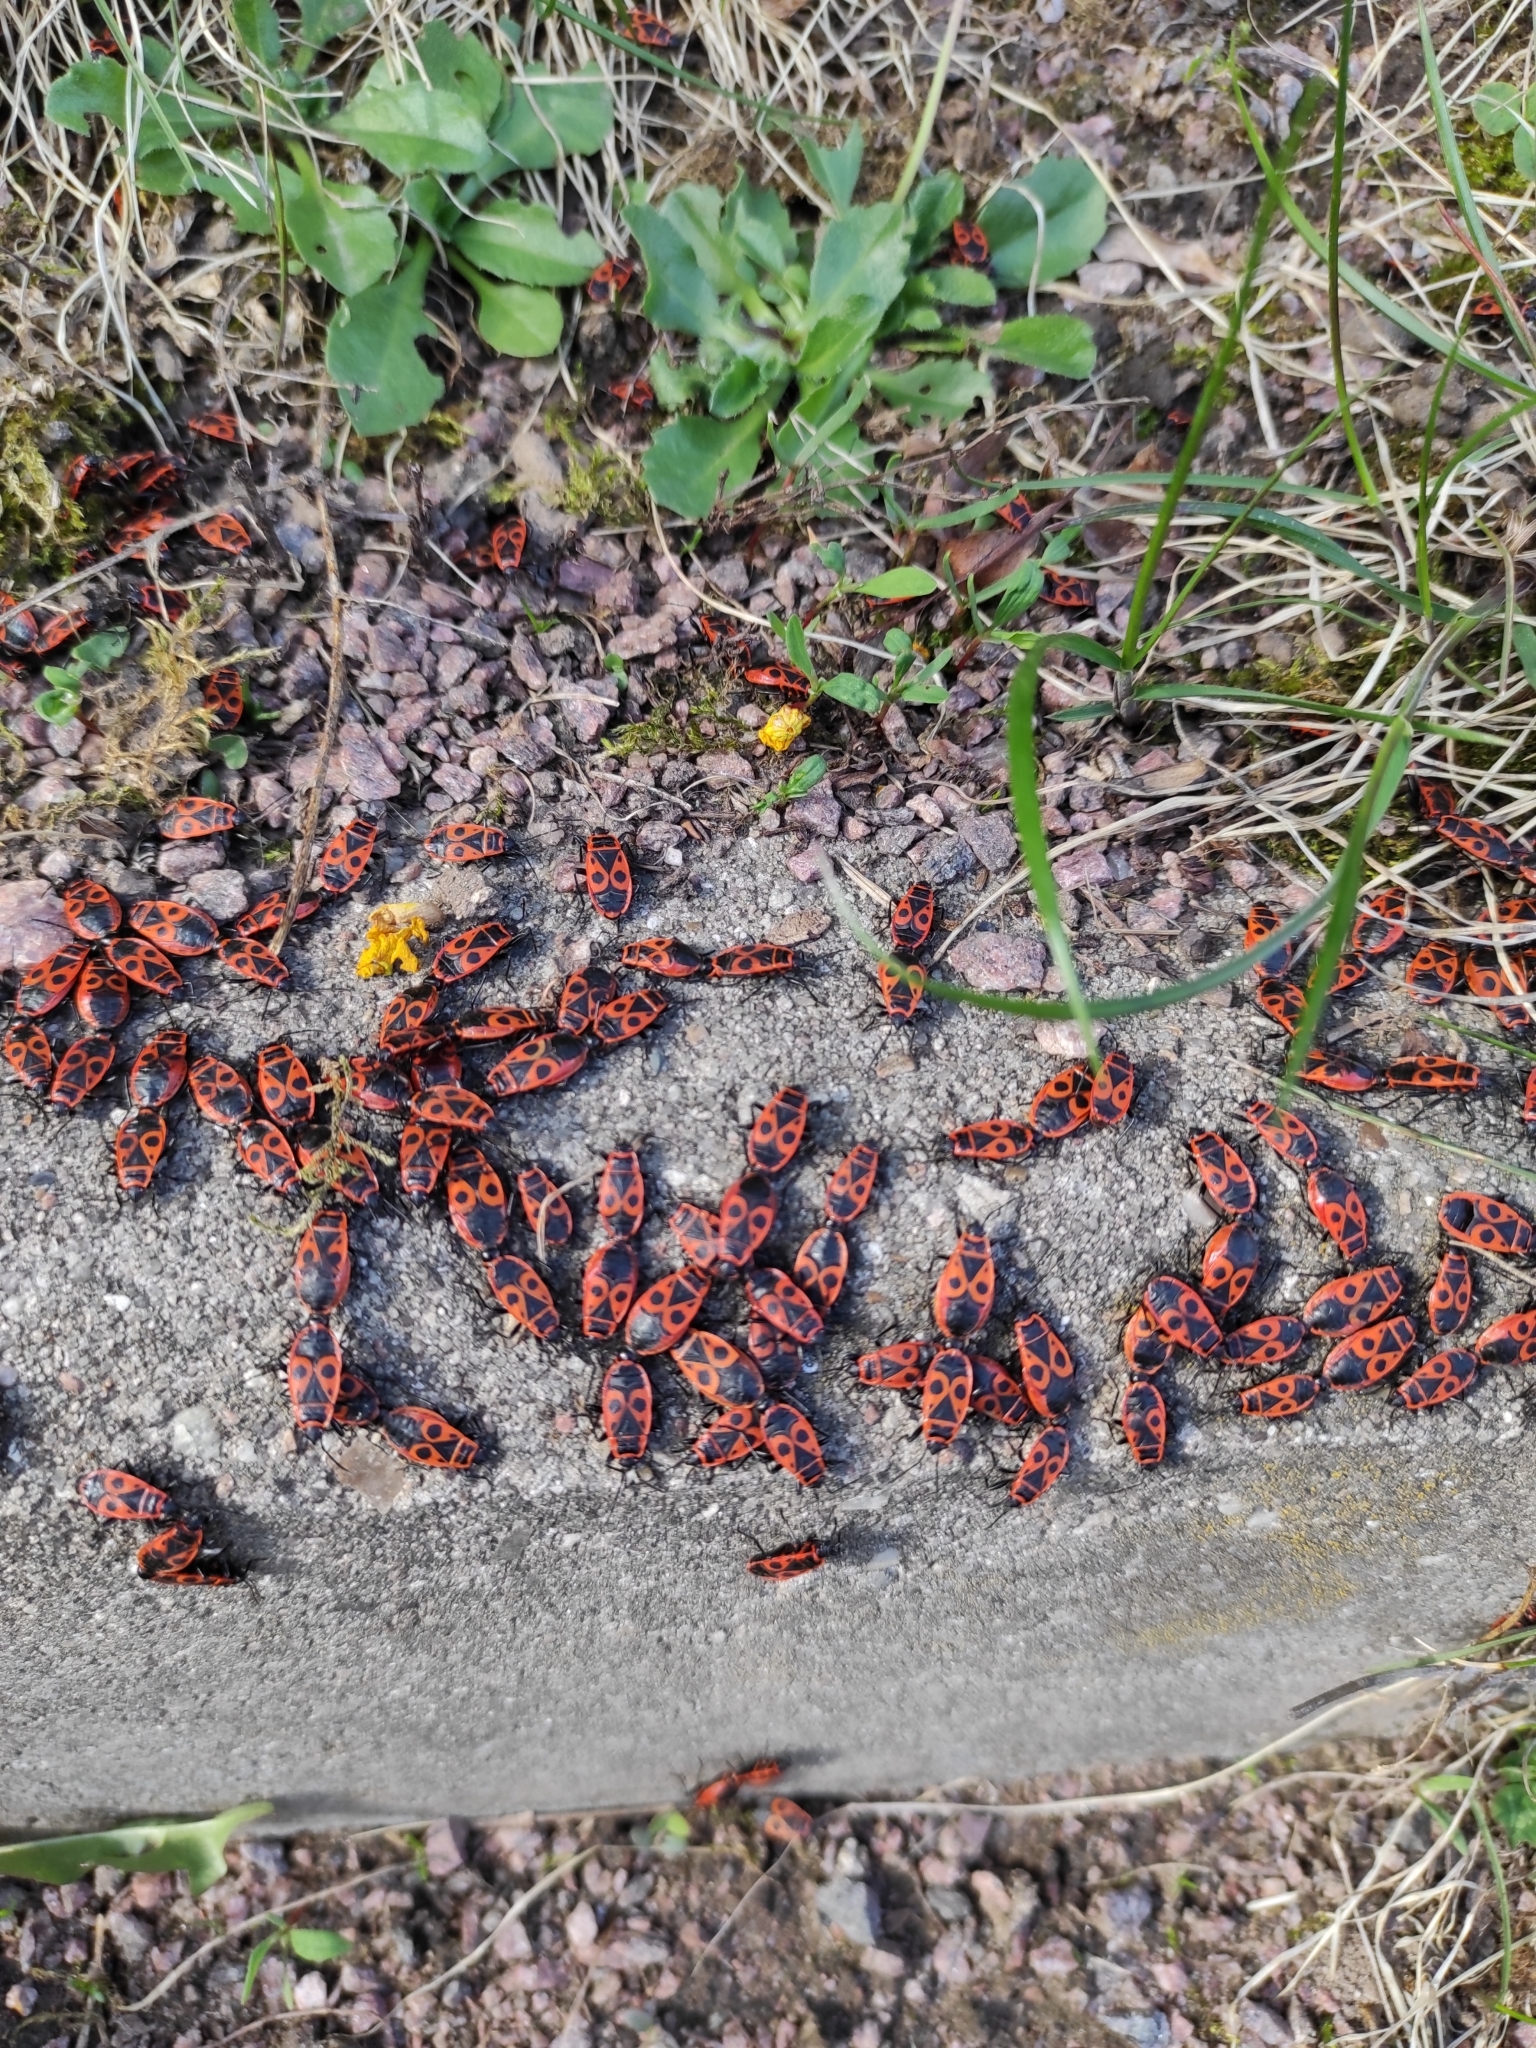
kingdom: Animalia
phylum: Arthropoda
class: Insecta
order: Hemiptera
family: Pyrrhocoridae
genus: Pyrrhocoris
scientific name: Pyrrhocoris apterus
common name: Firebug
